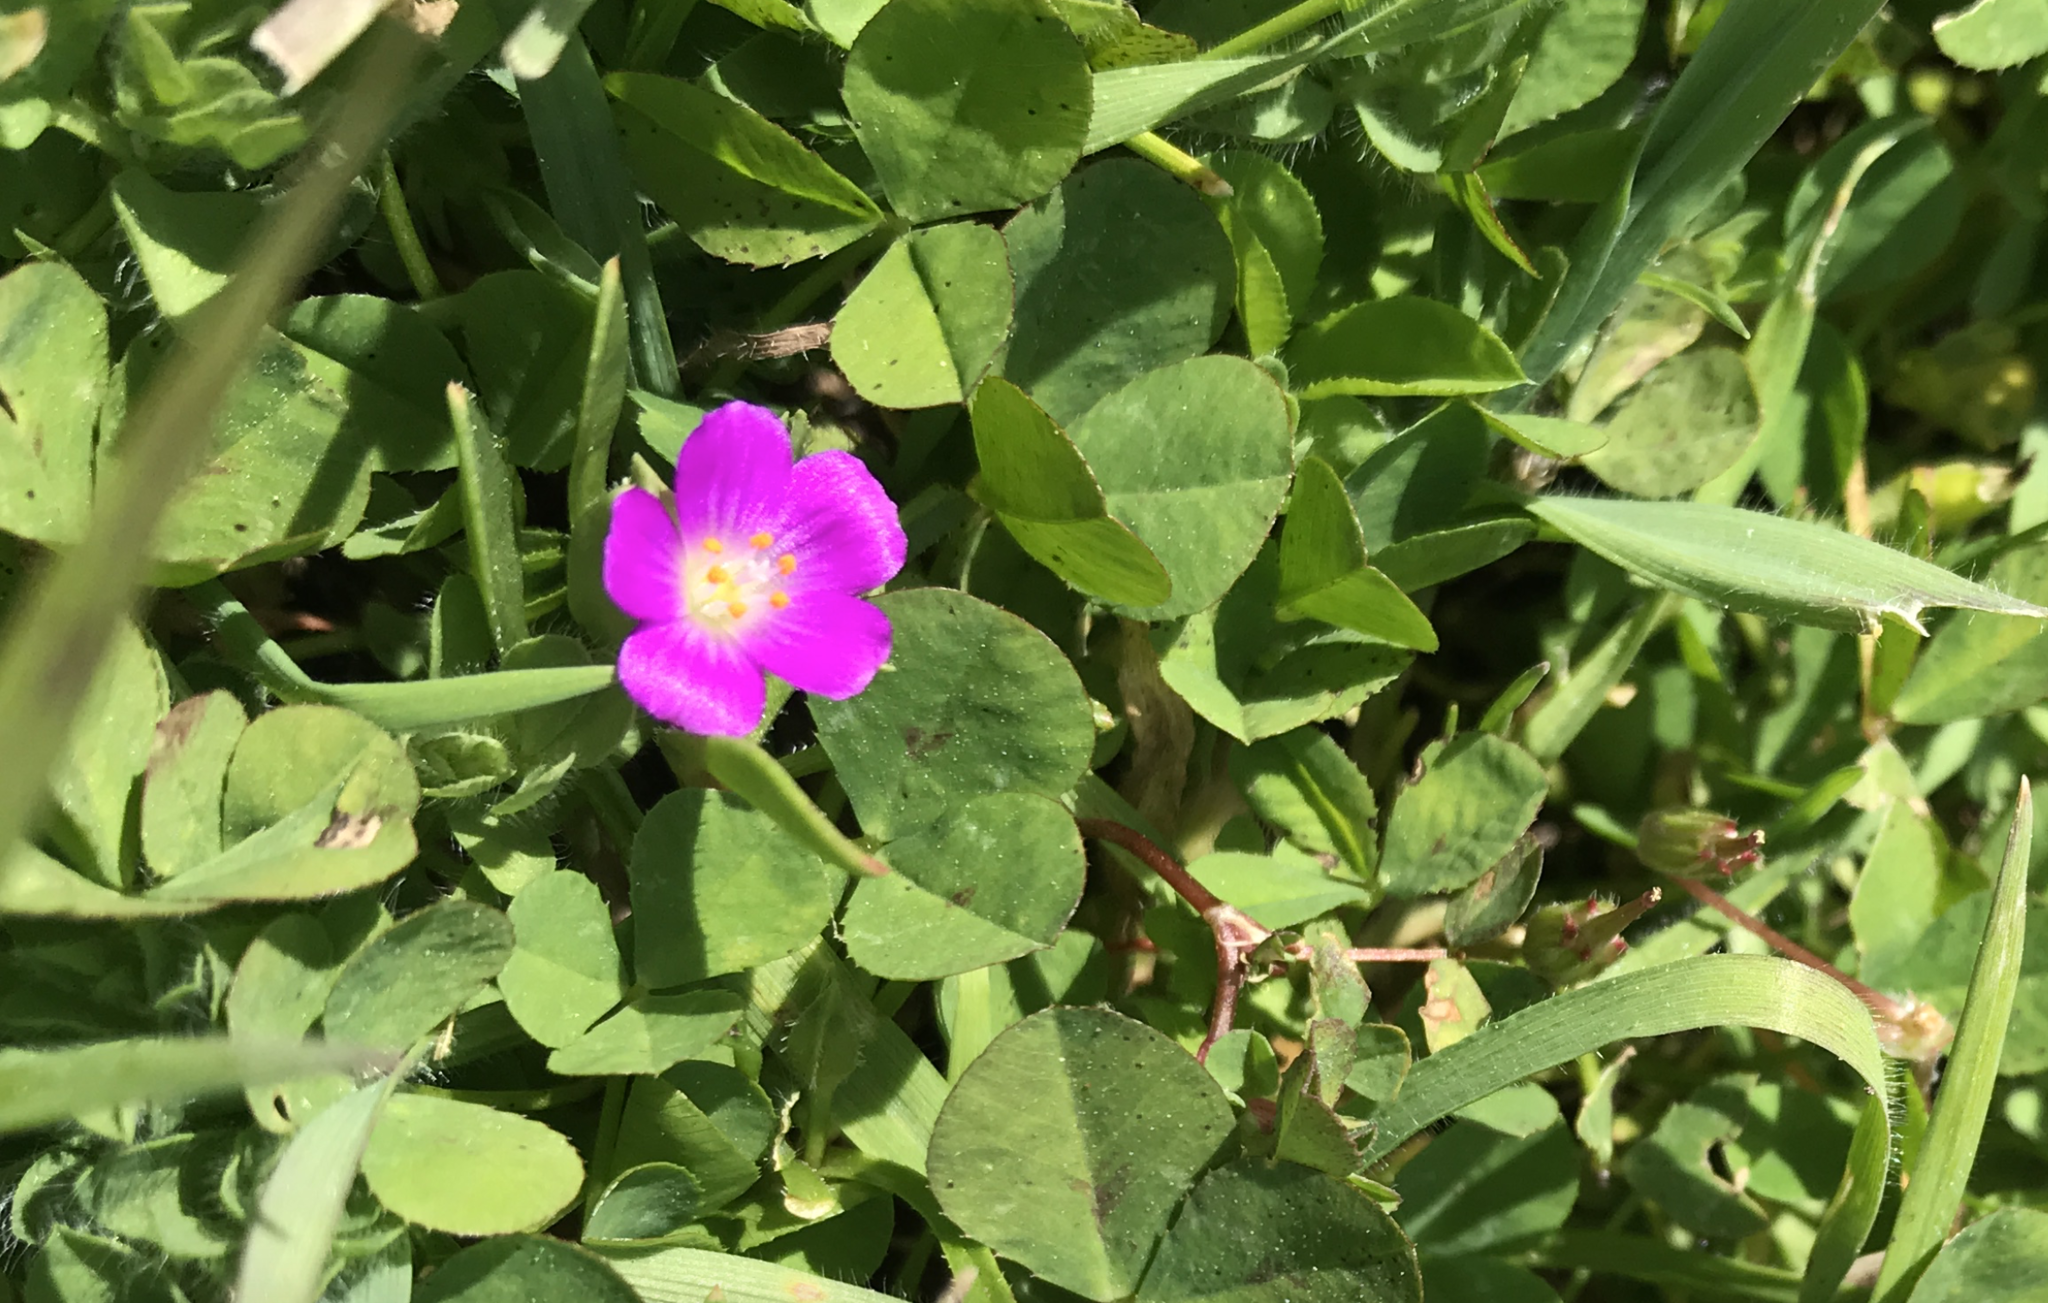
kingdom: Plantae
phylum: Tracheophyta
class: Magnoliopsida
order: Caryophyllales
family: Montiaceae
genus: Calandrinia
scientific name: Calandrinia menziesii
